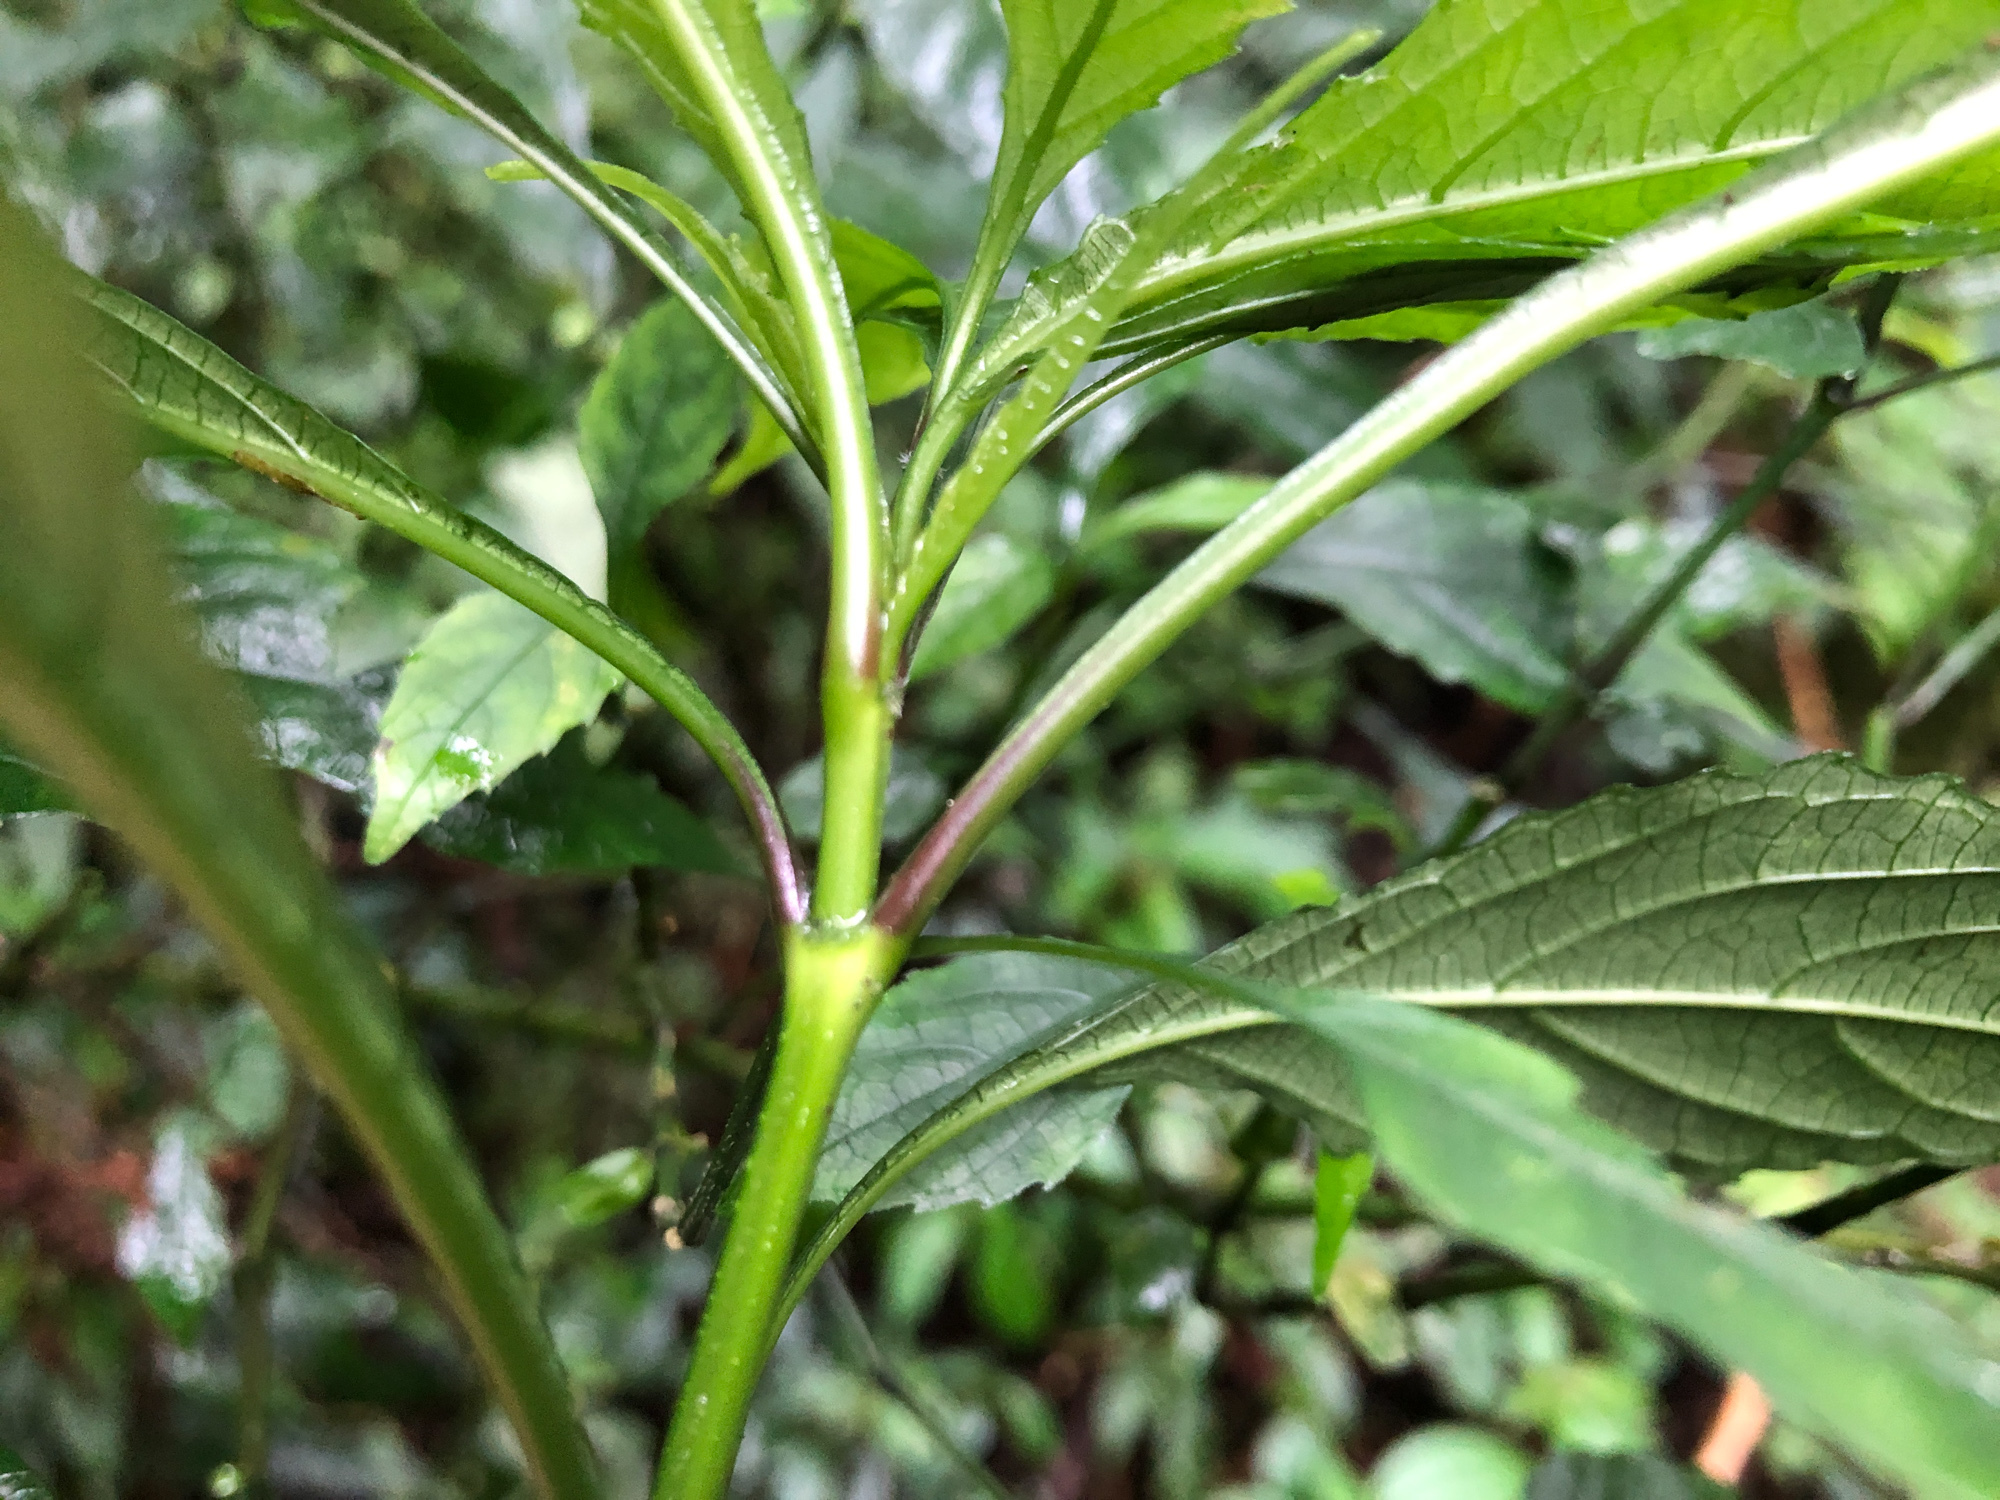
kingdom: Plantae
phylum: Tracheophyta
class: Magnoliopsida
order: Lamiales
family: Acanthaceae
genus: Strobilanthes
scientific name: Strobilanthes flexicaulis
